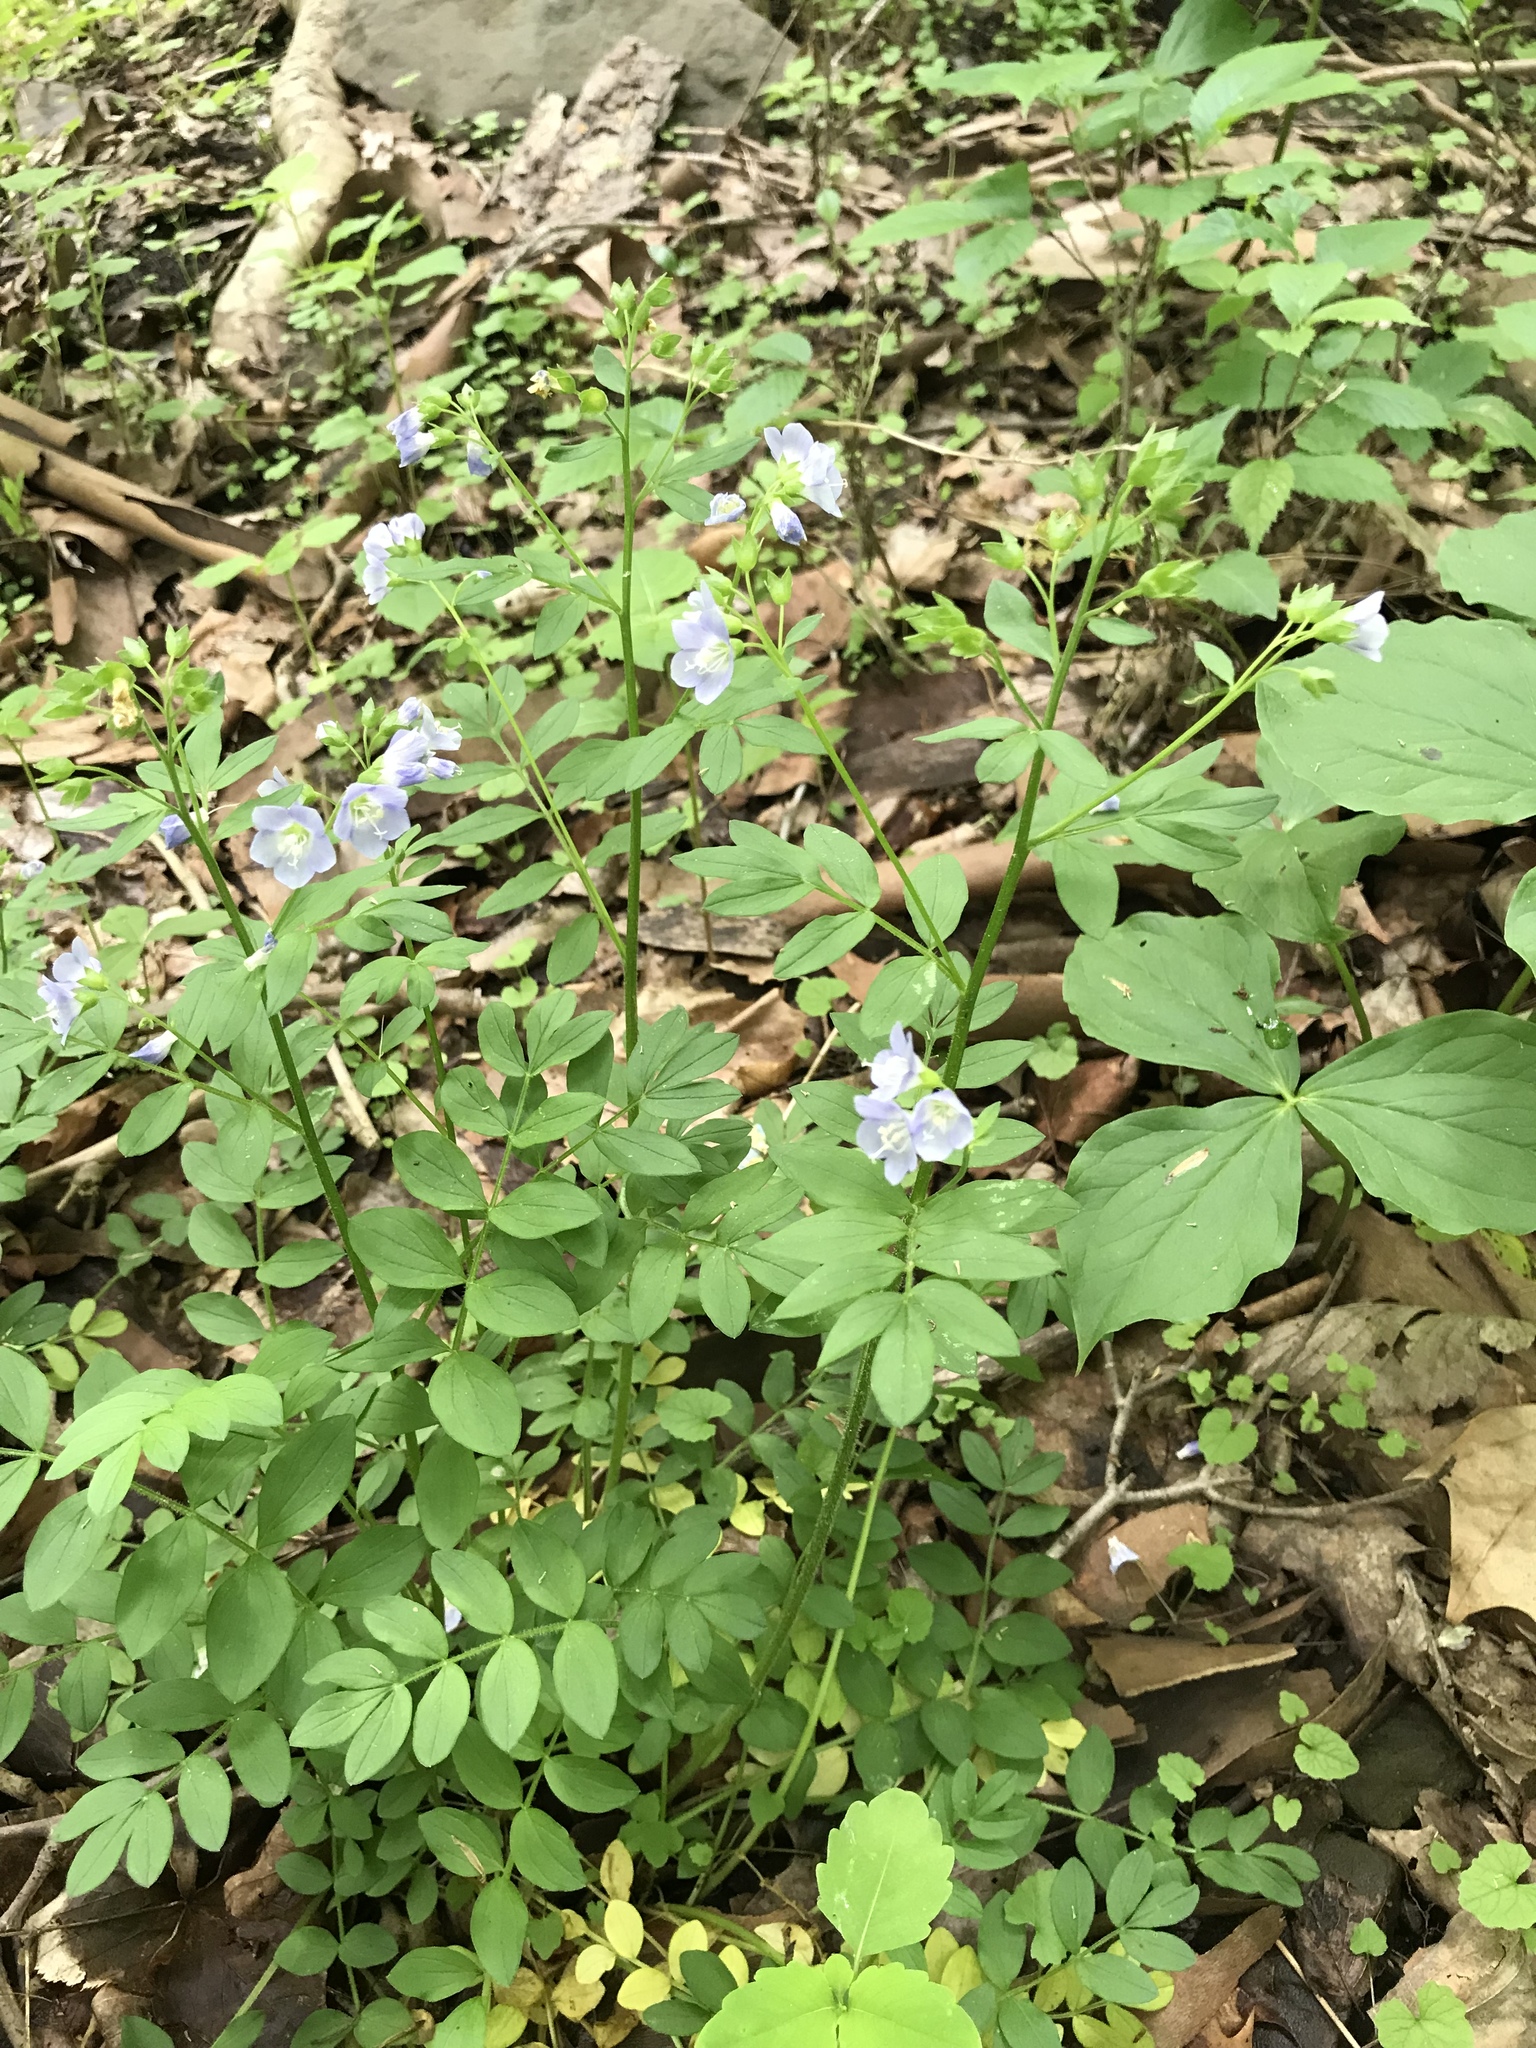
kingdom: Plantae
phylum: Tracheophyta
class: Magnoliopsida
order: Ericales
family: Polemoniaceae
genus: Polemonium
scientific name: Polemonium reptans
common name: Creeping jacob's-ladder
